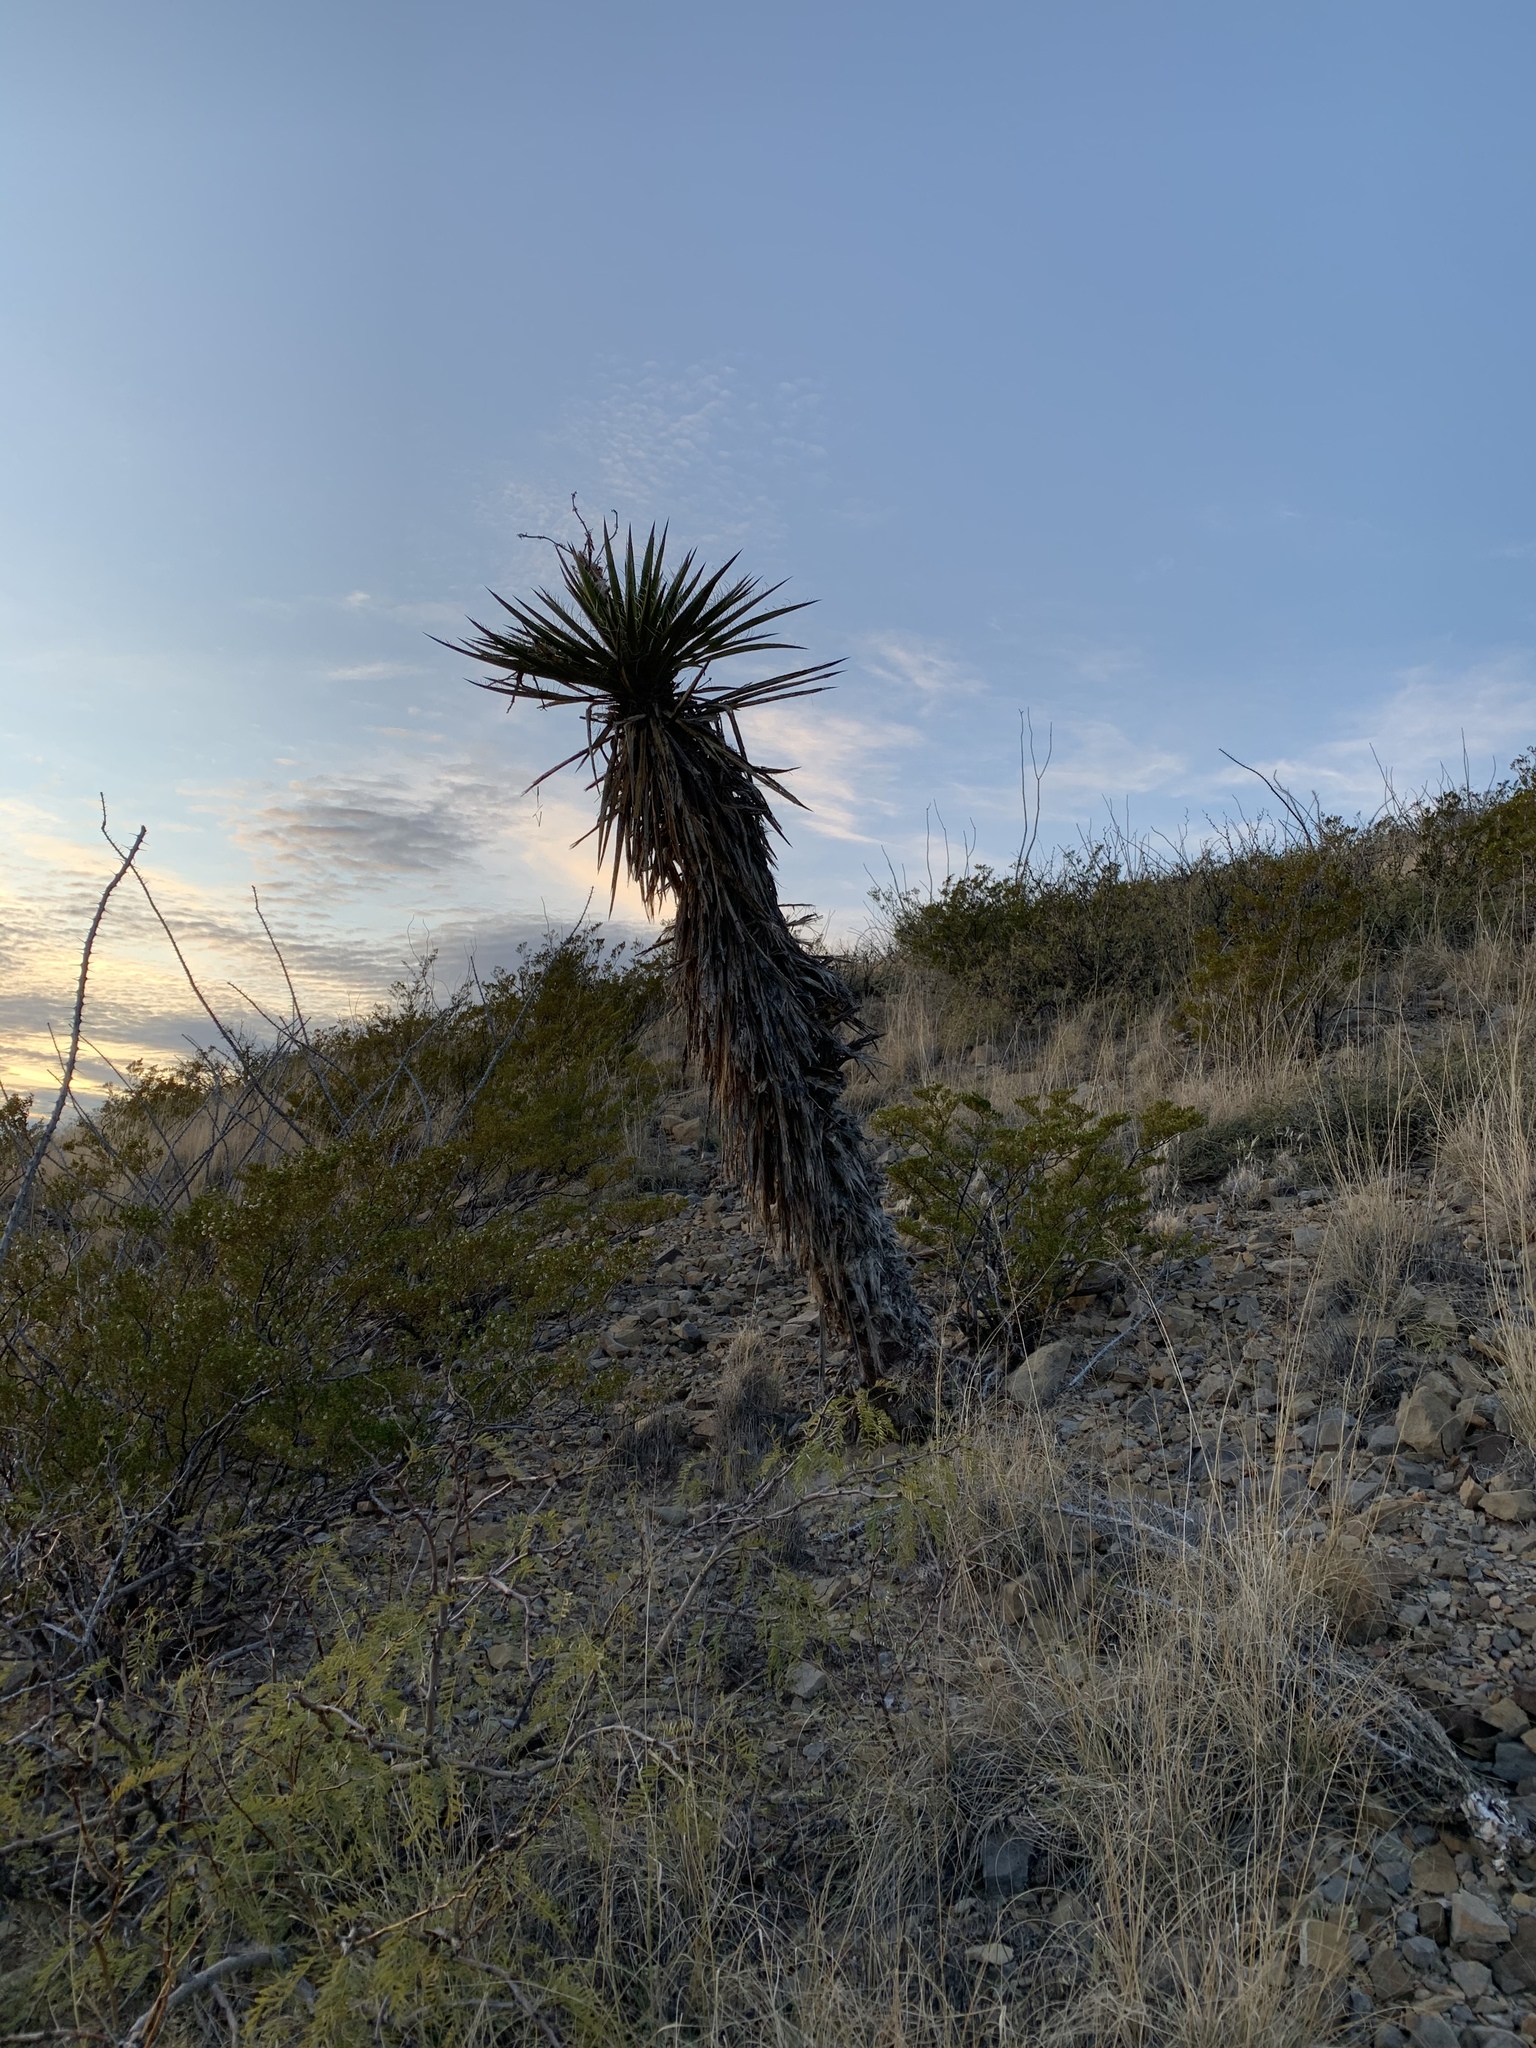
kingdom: Plantae
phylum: Tracheophyta
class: Liliopsida
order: Asparagales
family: Asparagaceae
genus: Yucca
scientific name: Yucca treculiana
